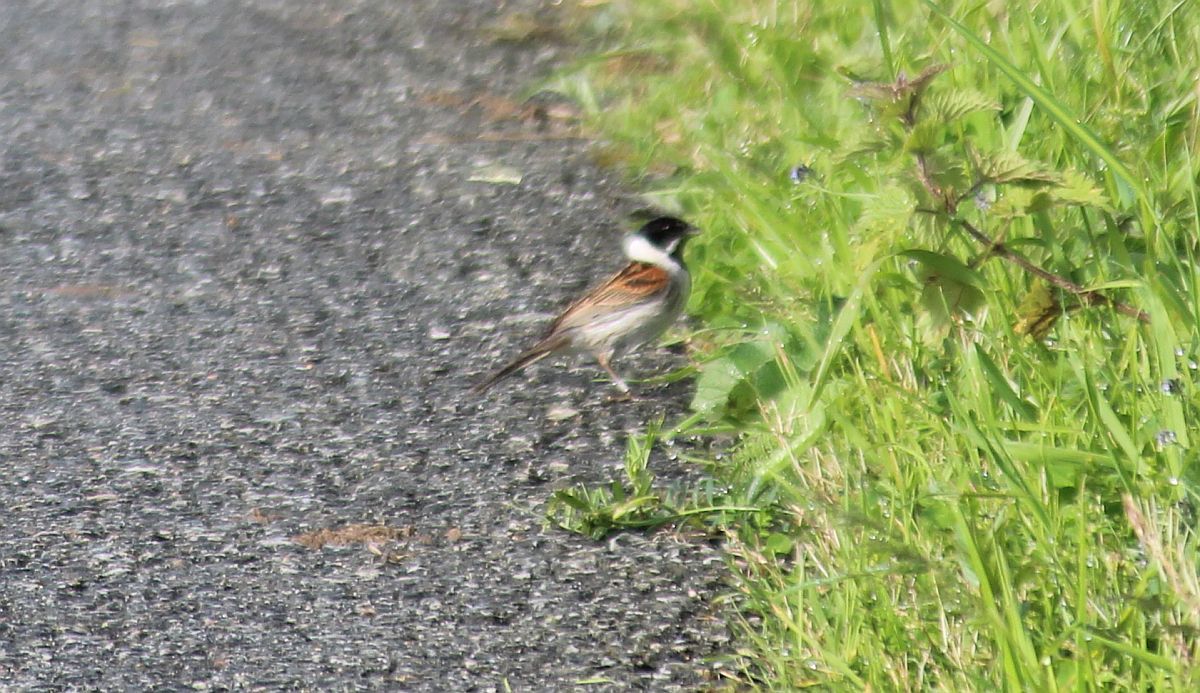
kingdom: Animalia
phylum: Chordata
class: Aves
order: Passeriformes
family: Emberizidae
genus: Emberiza
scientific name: Emberiza schoeniclus
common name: Reed bunting
